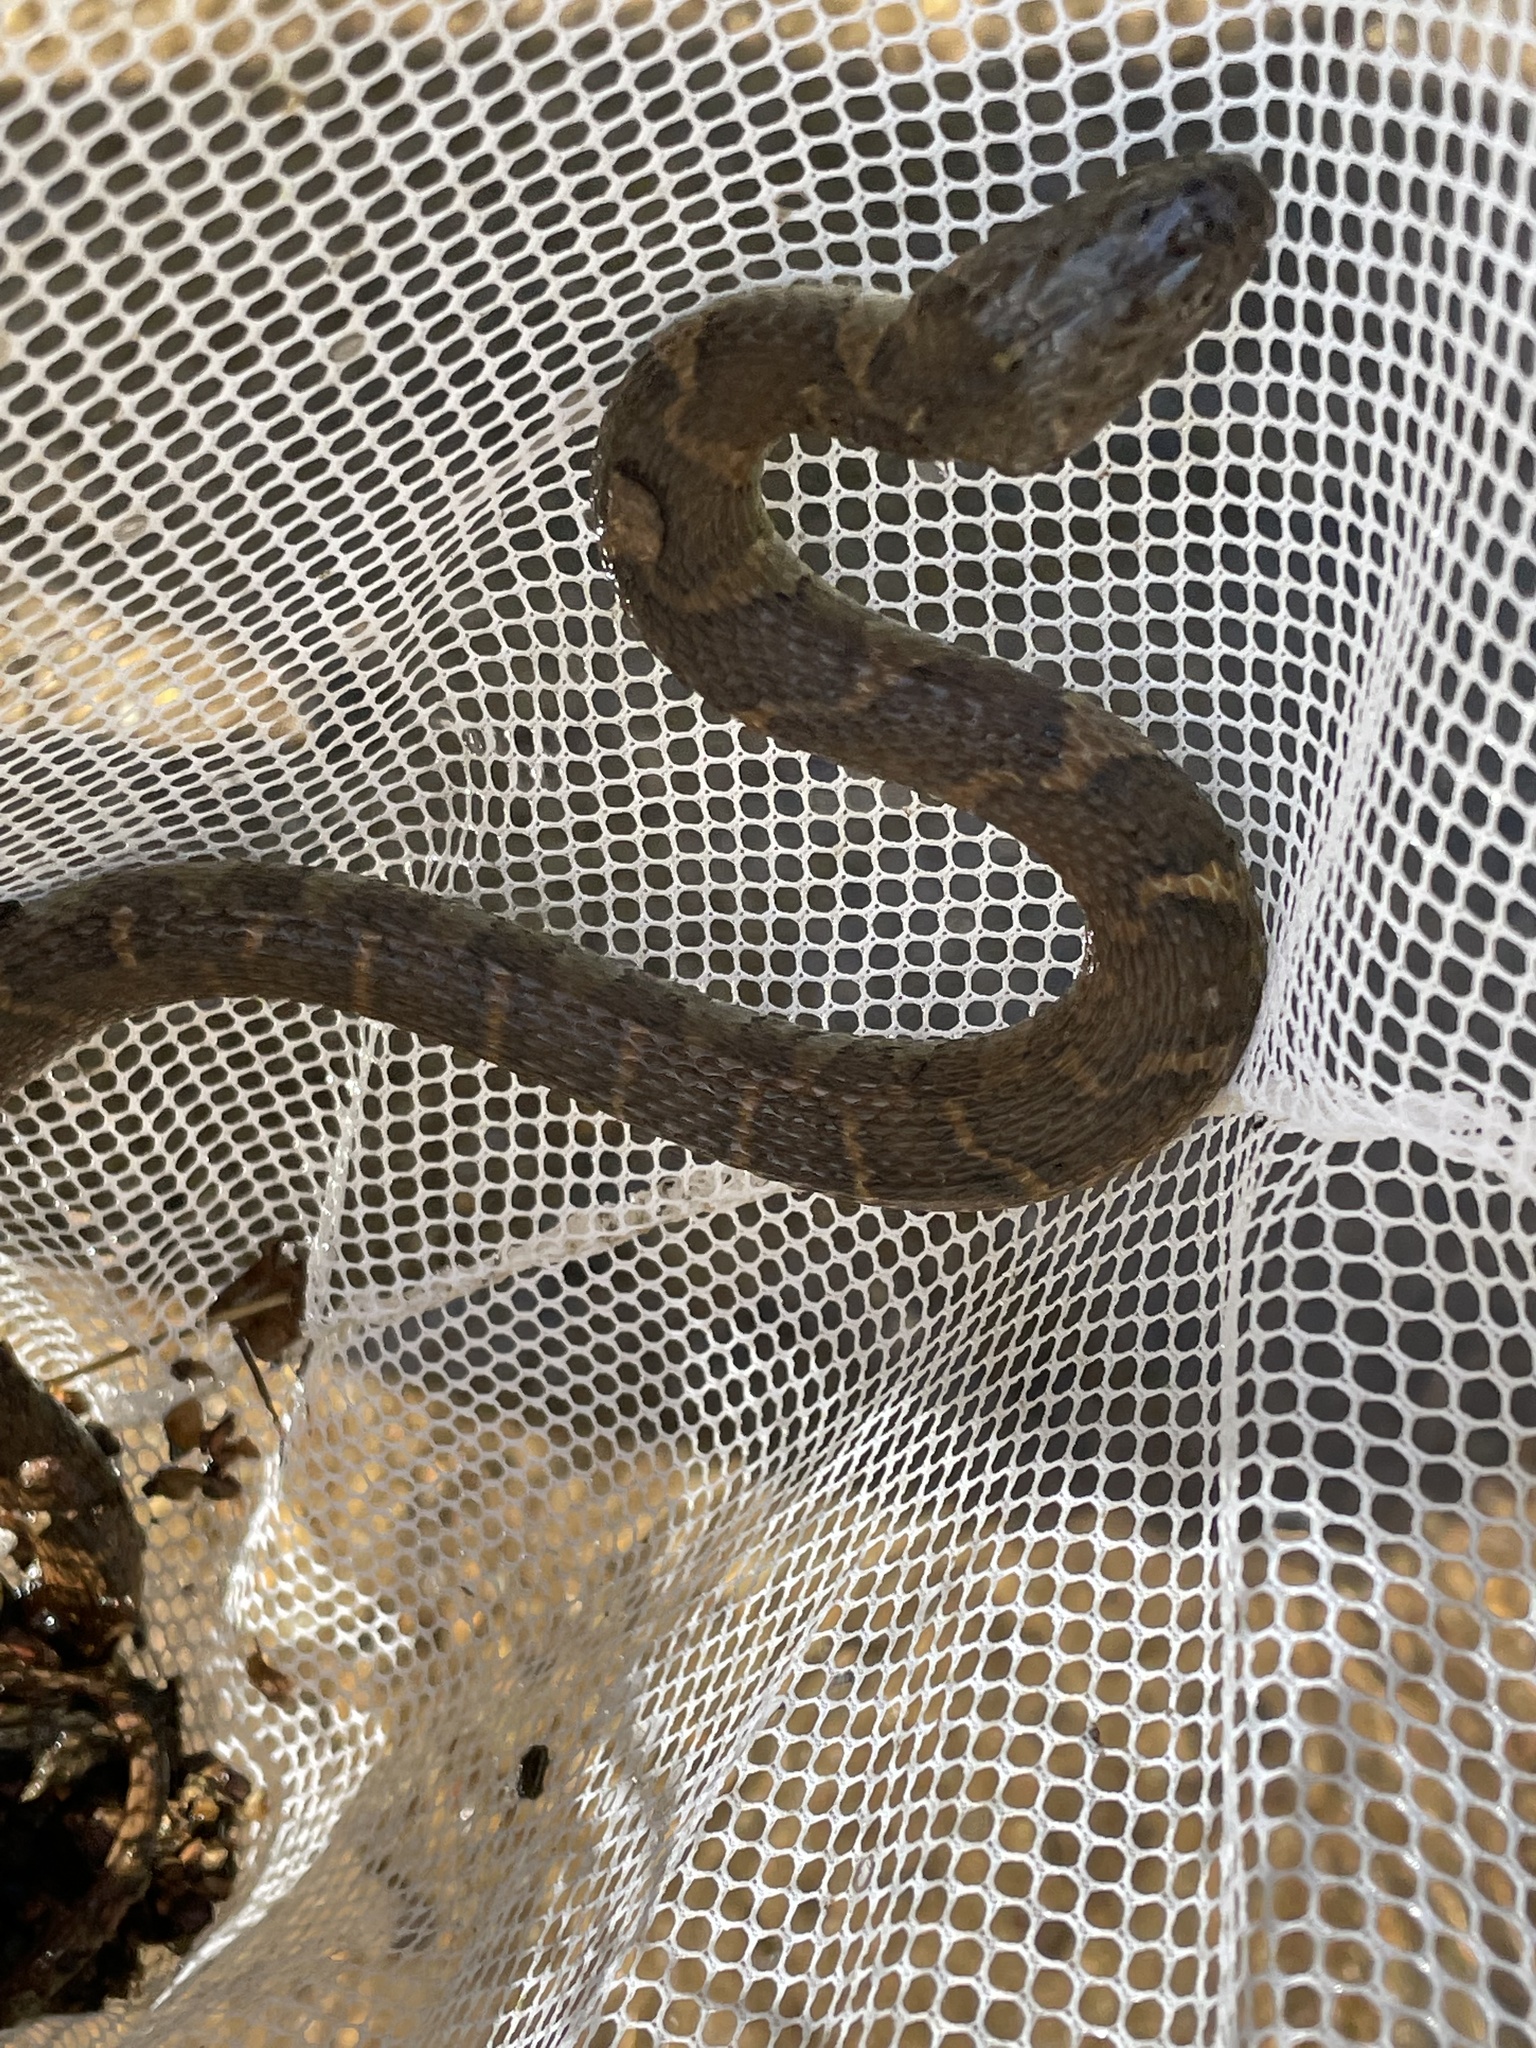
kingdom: Animalia
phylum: Chordata
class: Squamata
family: Colubridae
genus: Nerodia
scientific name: Nerodia sipedon
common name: Northern water snake
